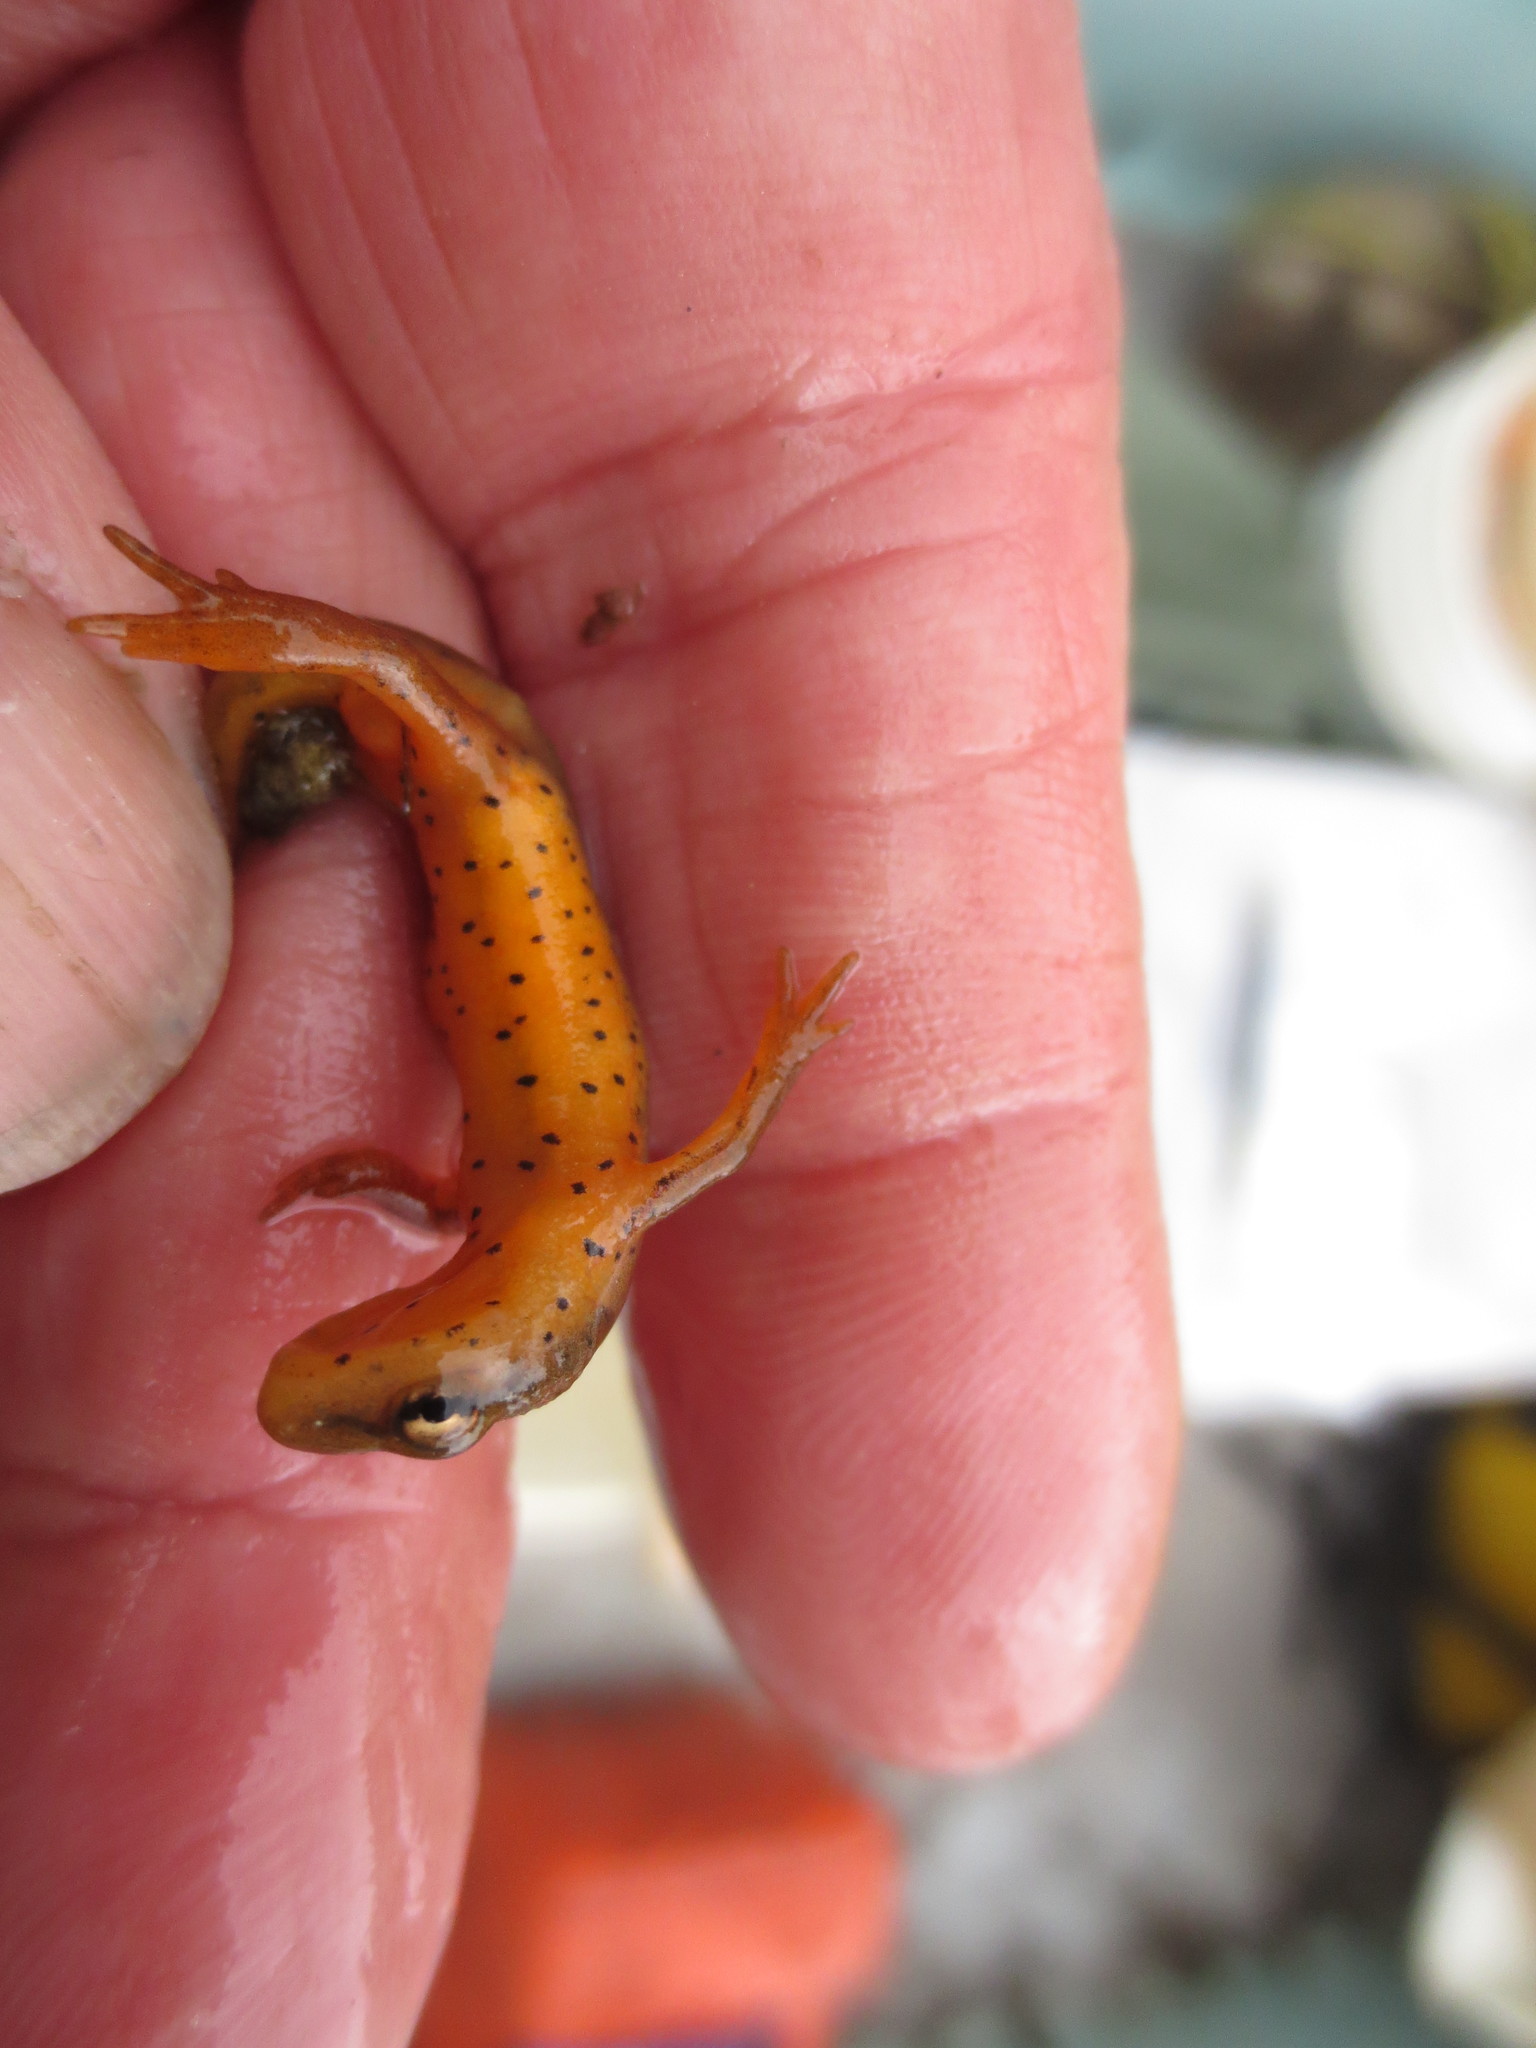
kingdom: Animalia
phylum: Chordata
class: Amphibia
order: Caudata
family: Salamandridae
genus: Notophthalmus
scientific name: Notophthalmus viridescens
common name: Eastern newt
